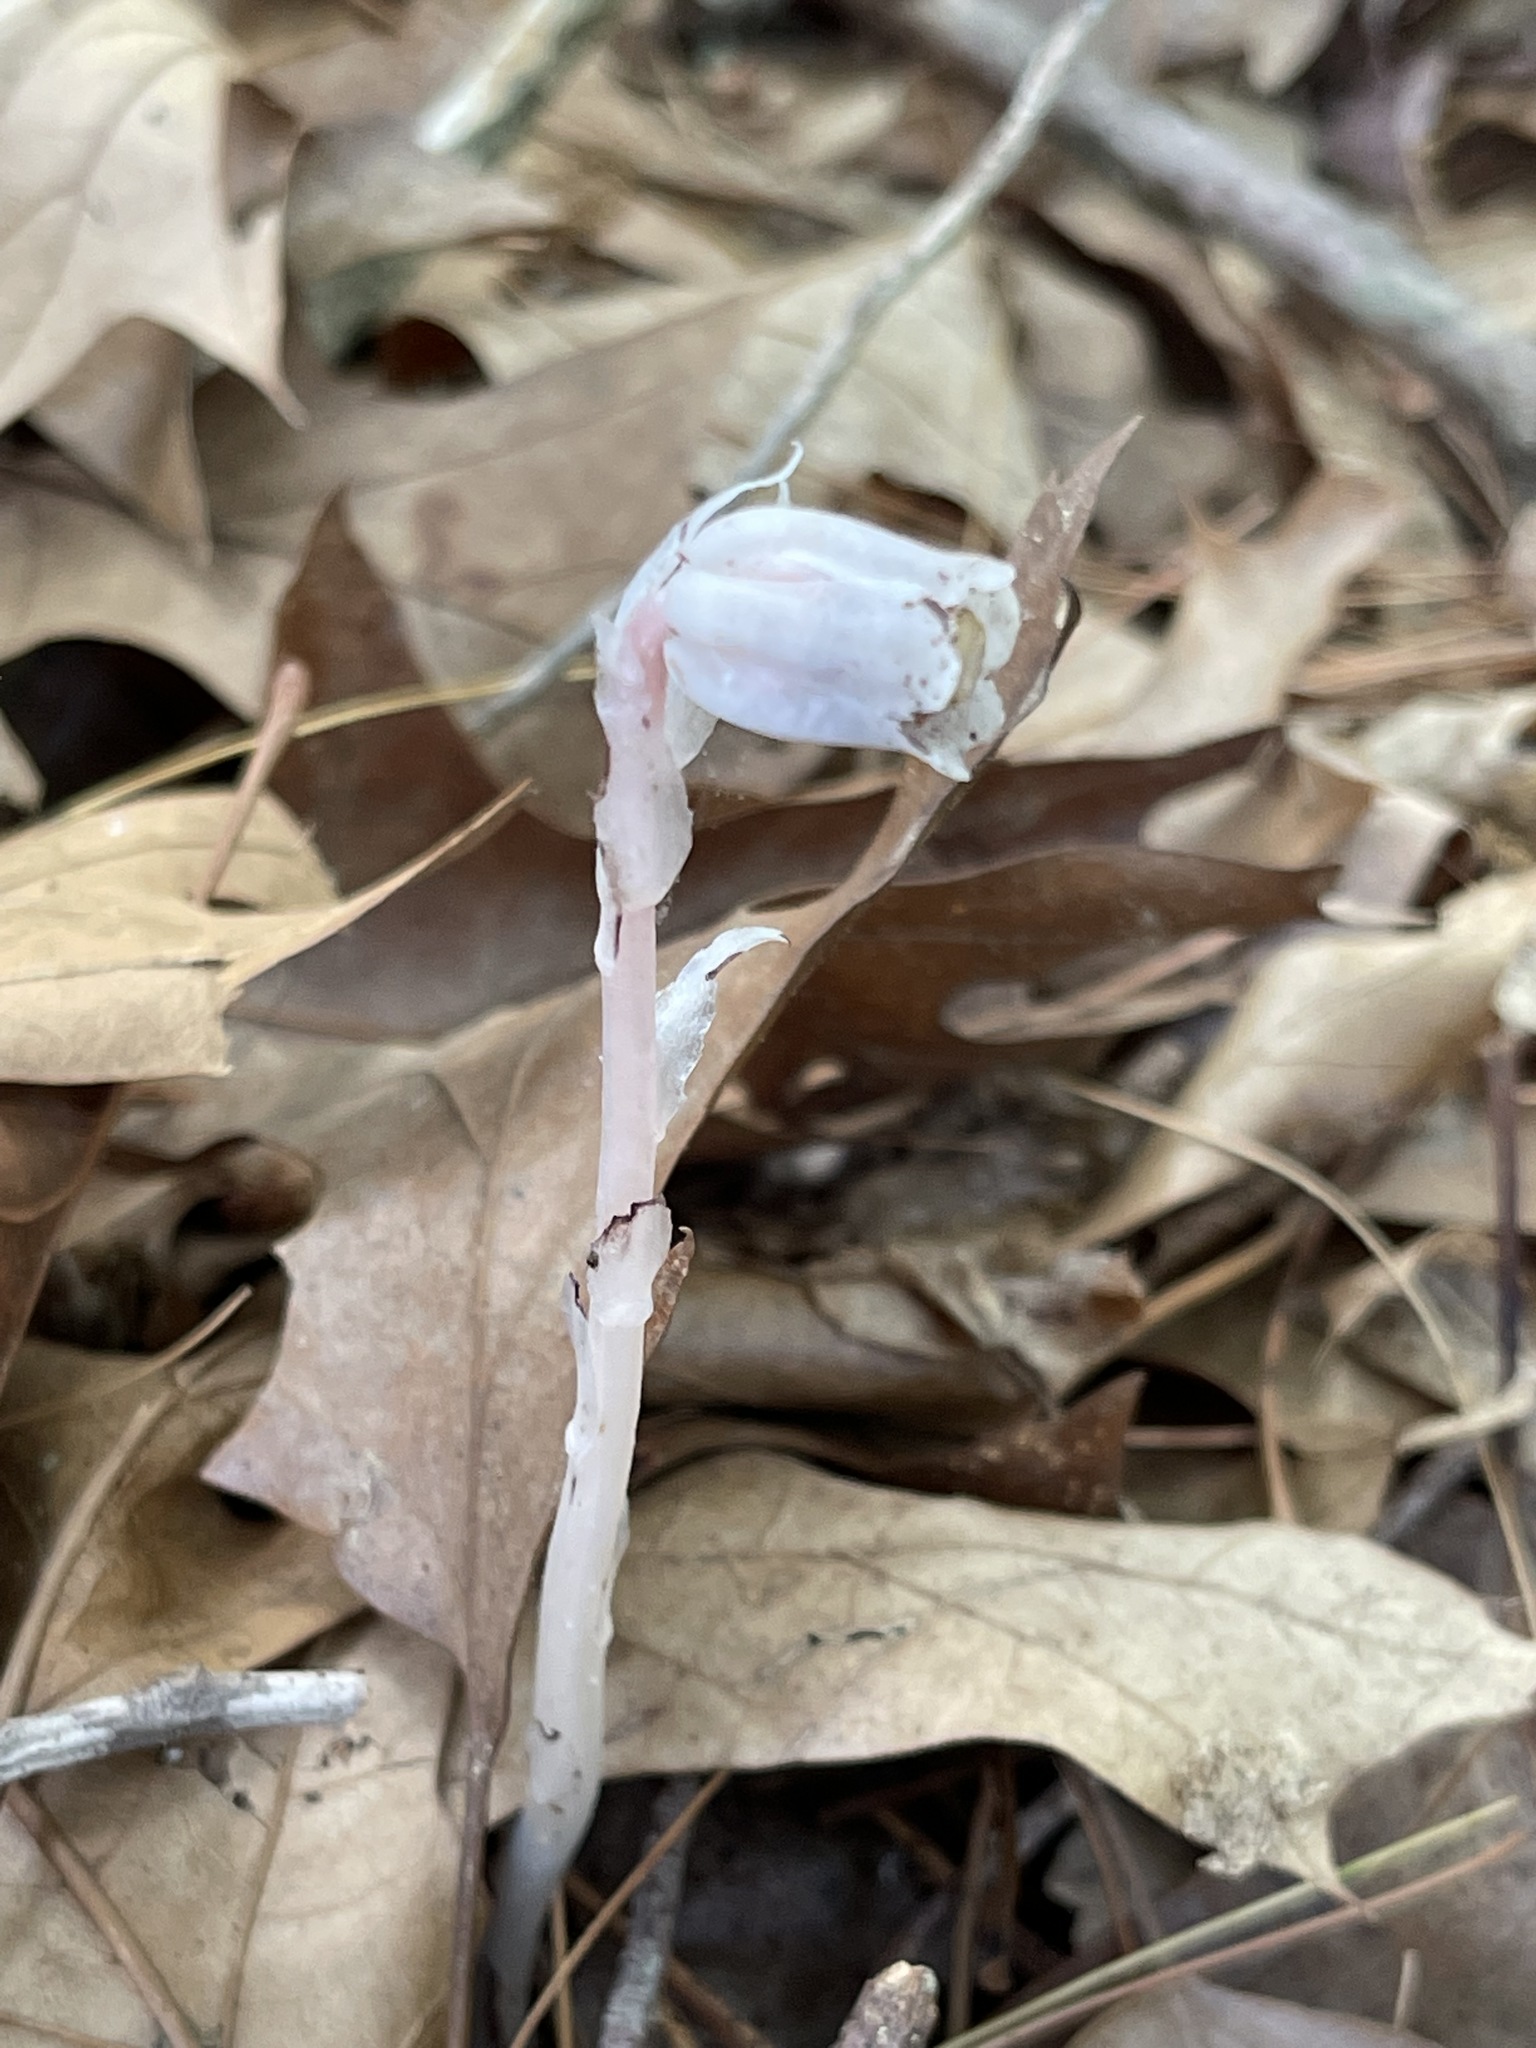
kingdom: Plantae
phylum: Tracheophyta
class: Magnoliopsida
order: Ericales
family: Ericaceae
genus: Monotropa
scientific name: Monotropa uniflora
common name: Convulsion root
